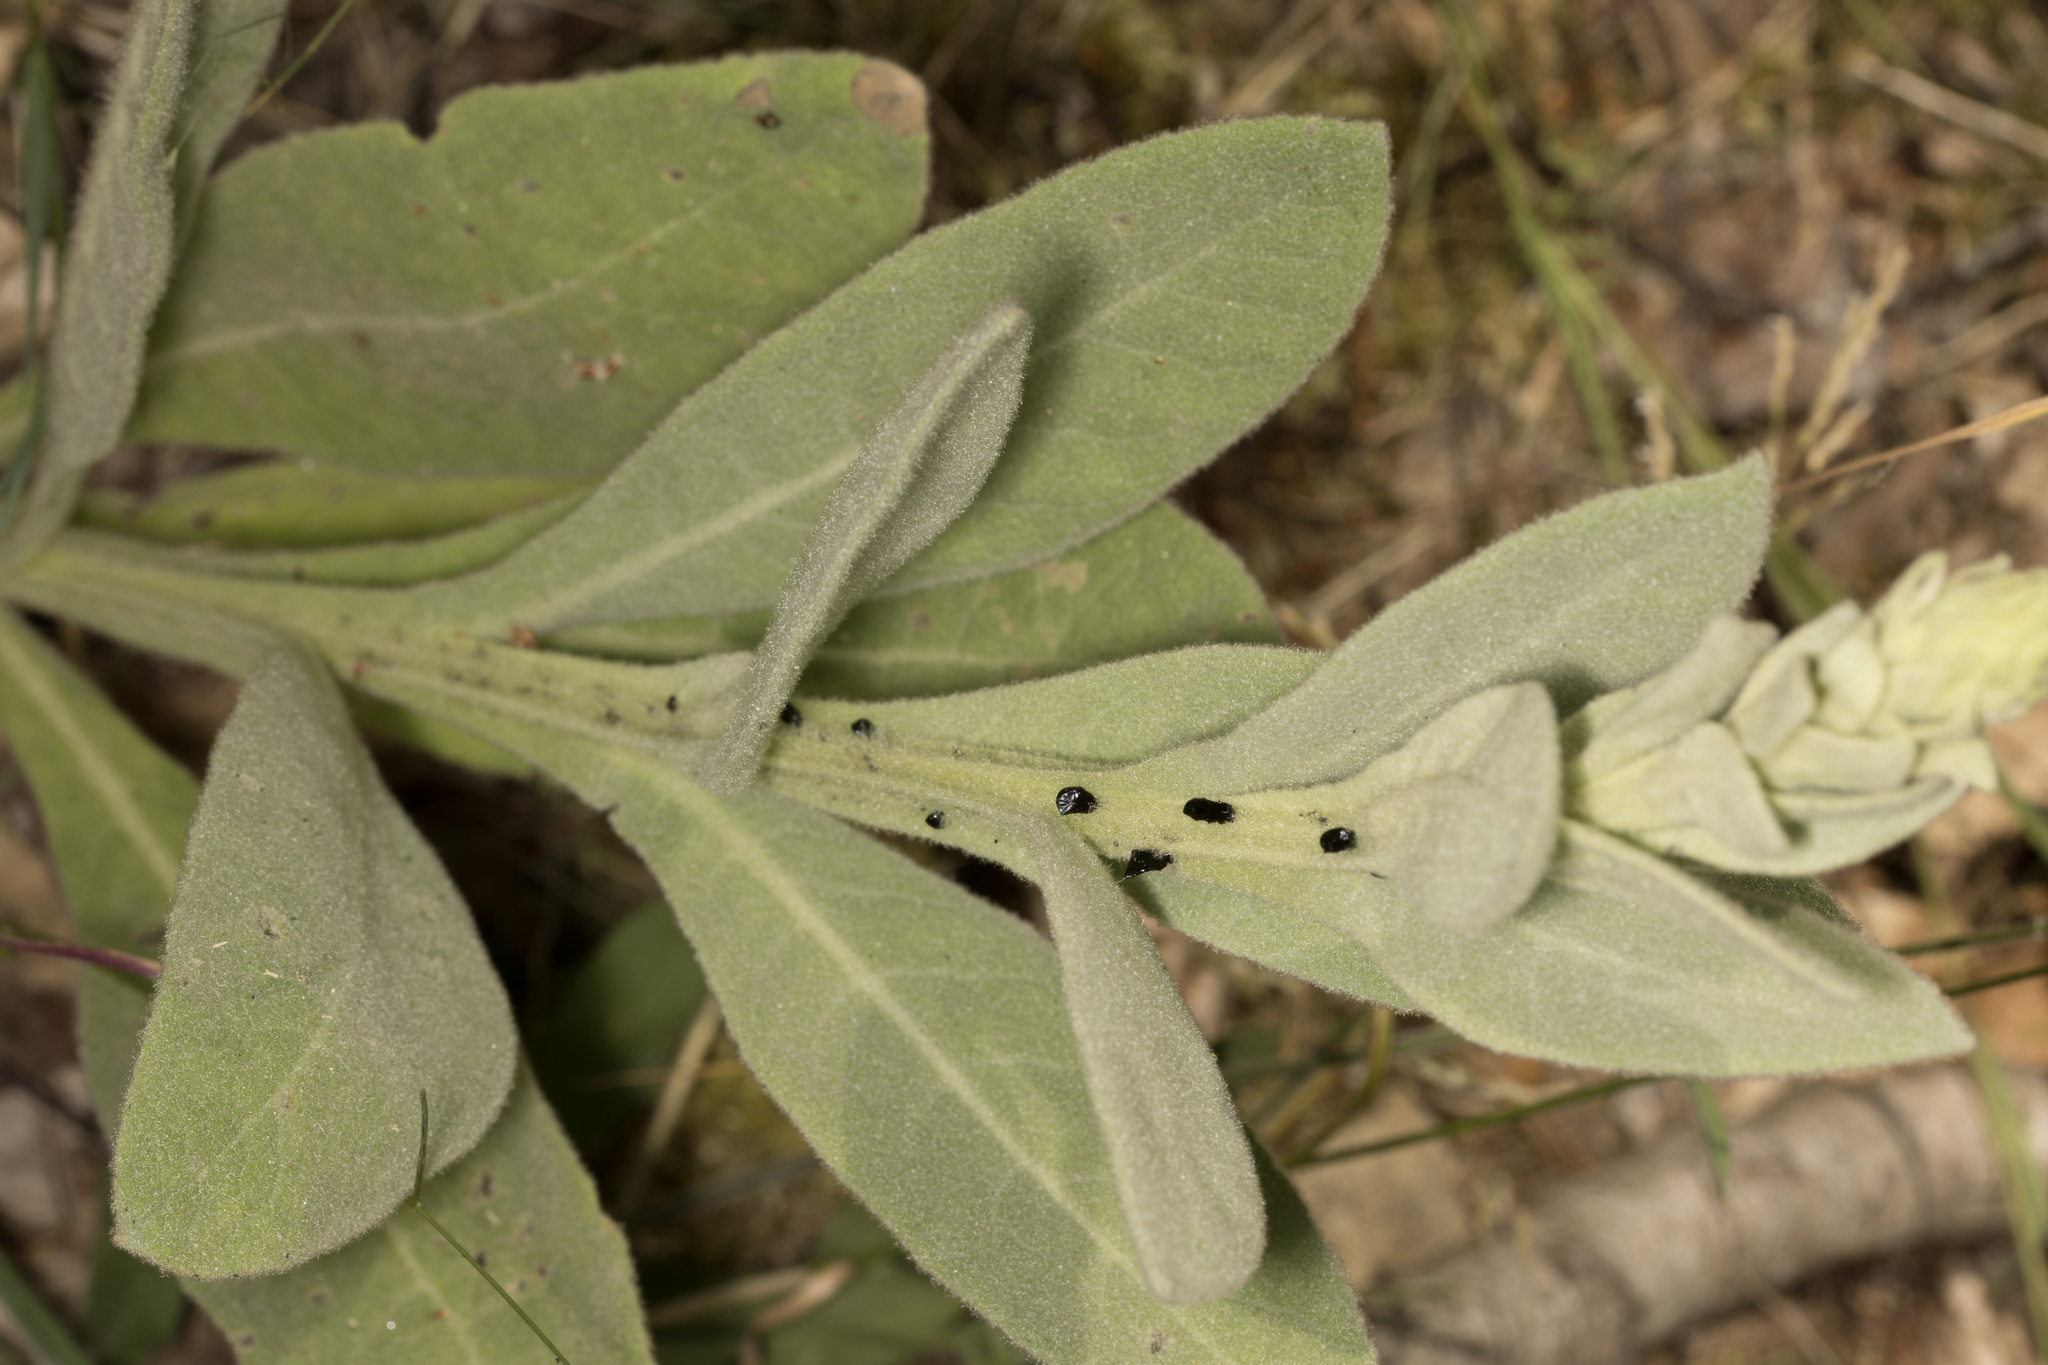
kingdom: Plantae
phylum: Tracheophyta
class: Magnoliopsida
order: Lamiales
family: Scrophulariaceae
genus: Verbascum
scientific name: Verbascum thapsus
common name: Common mullein
